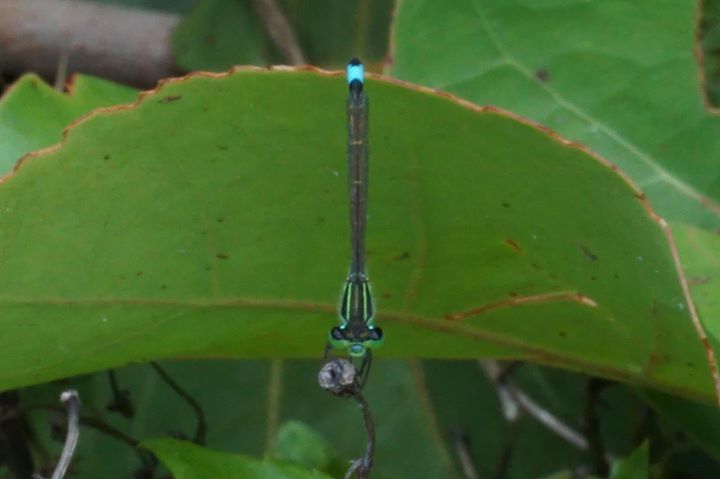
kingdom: Animalia
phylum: Arthropoda
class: Insecta
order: Odonata
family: Coenagrionidae
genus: Ischnura
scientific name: Ischnura ramburii
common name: Rambur's forktail
